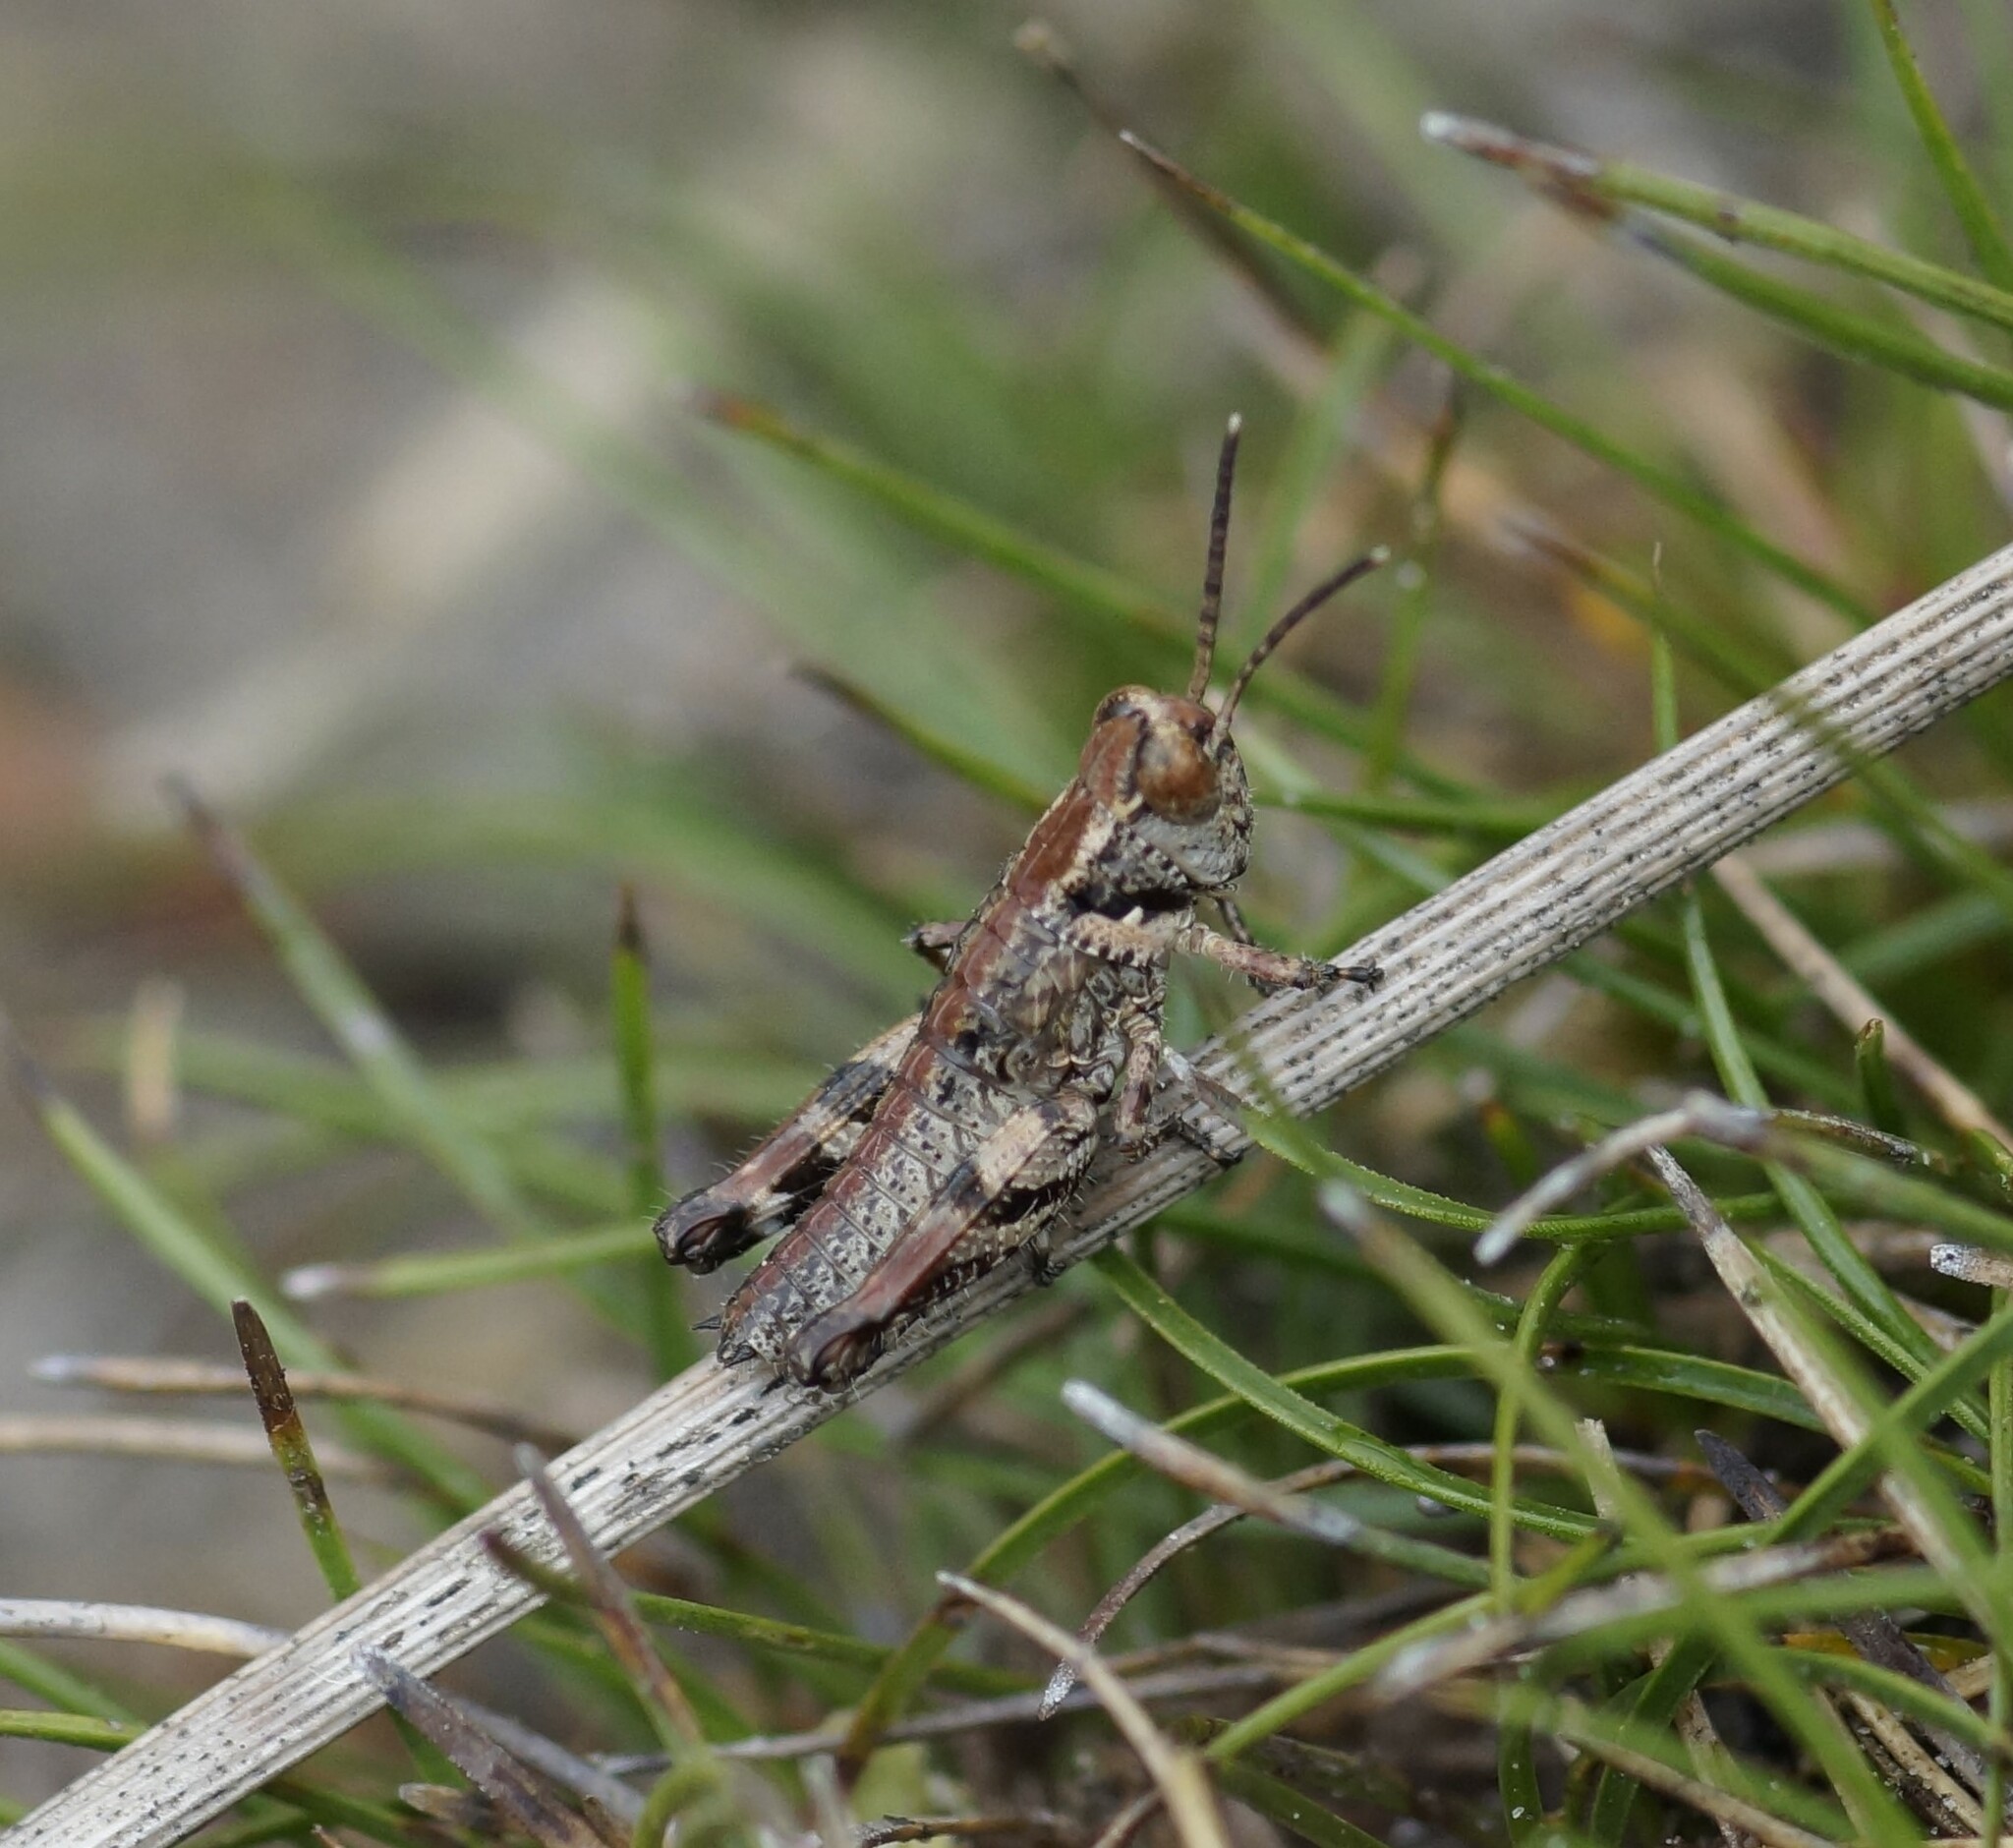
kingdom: Animalia
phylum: Arthropoda
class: Insecta
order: Orthoptera
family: Acrididae
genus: Exarna
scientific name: Exarna includens
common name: Red-legged exarna
